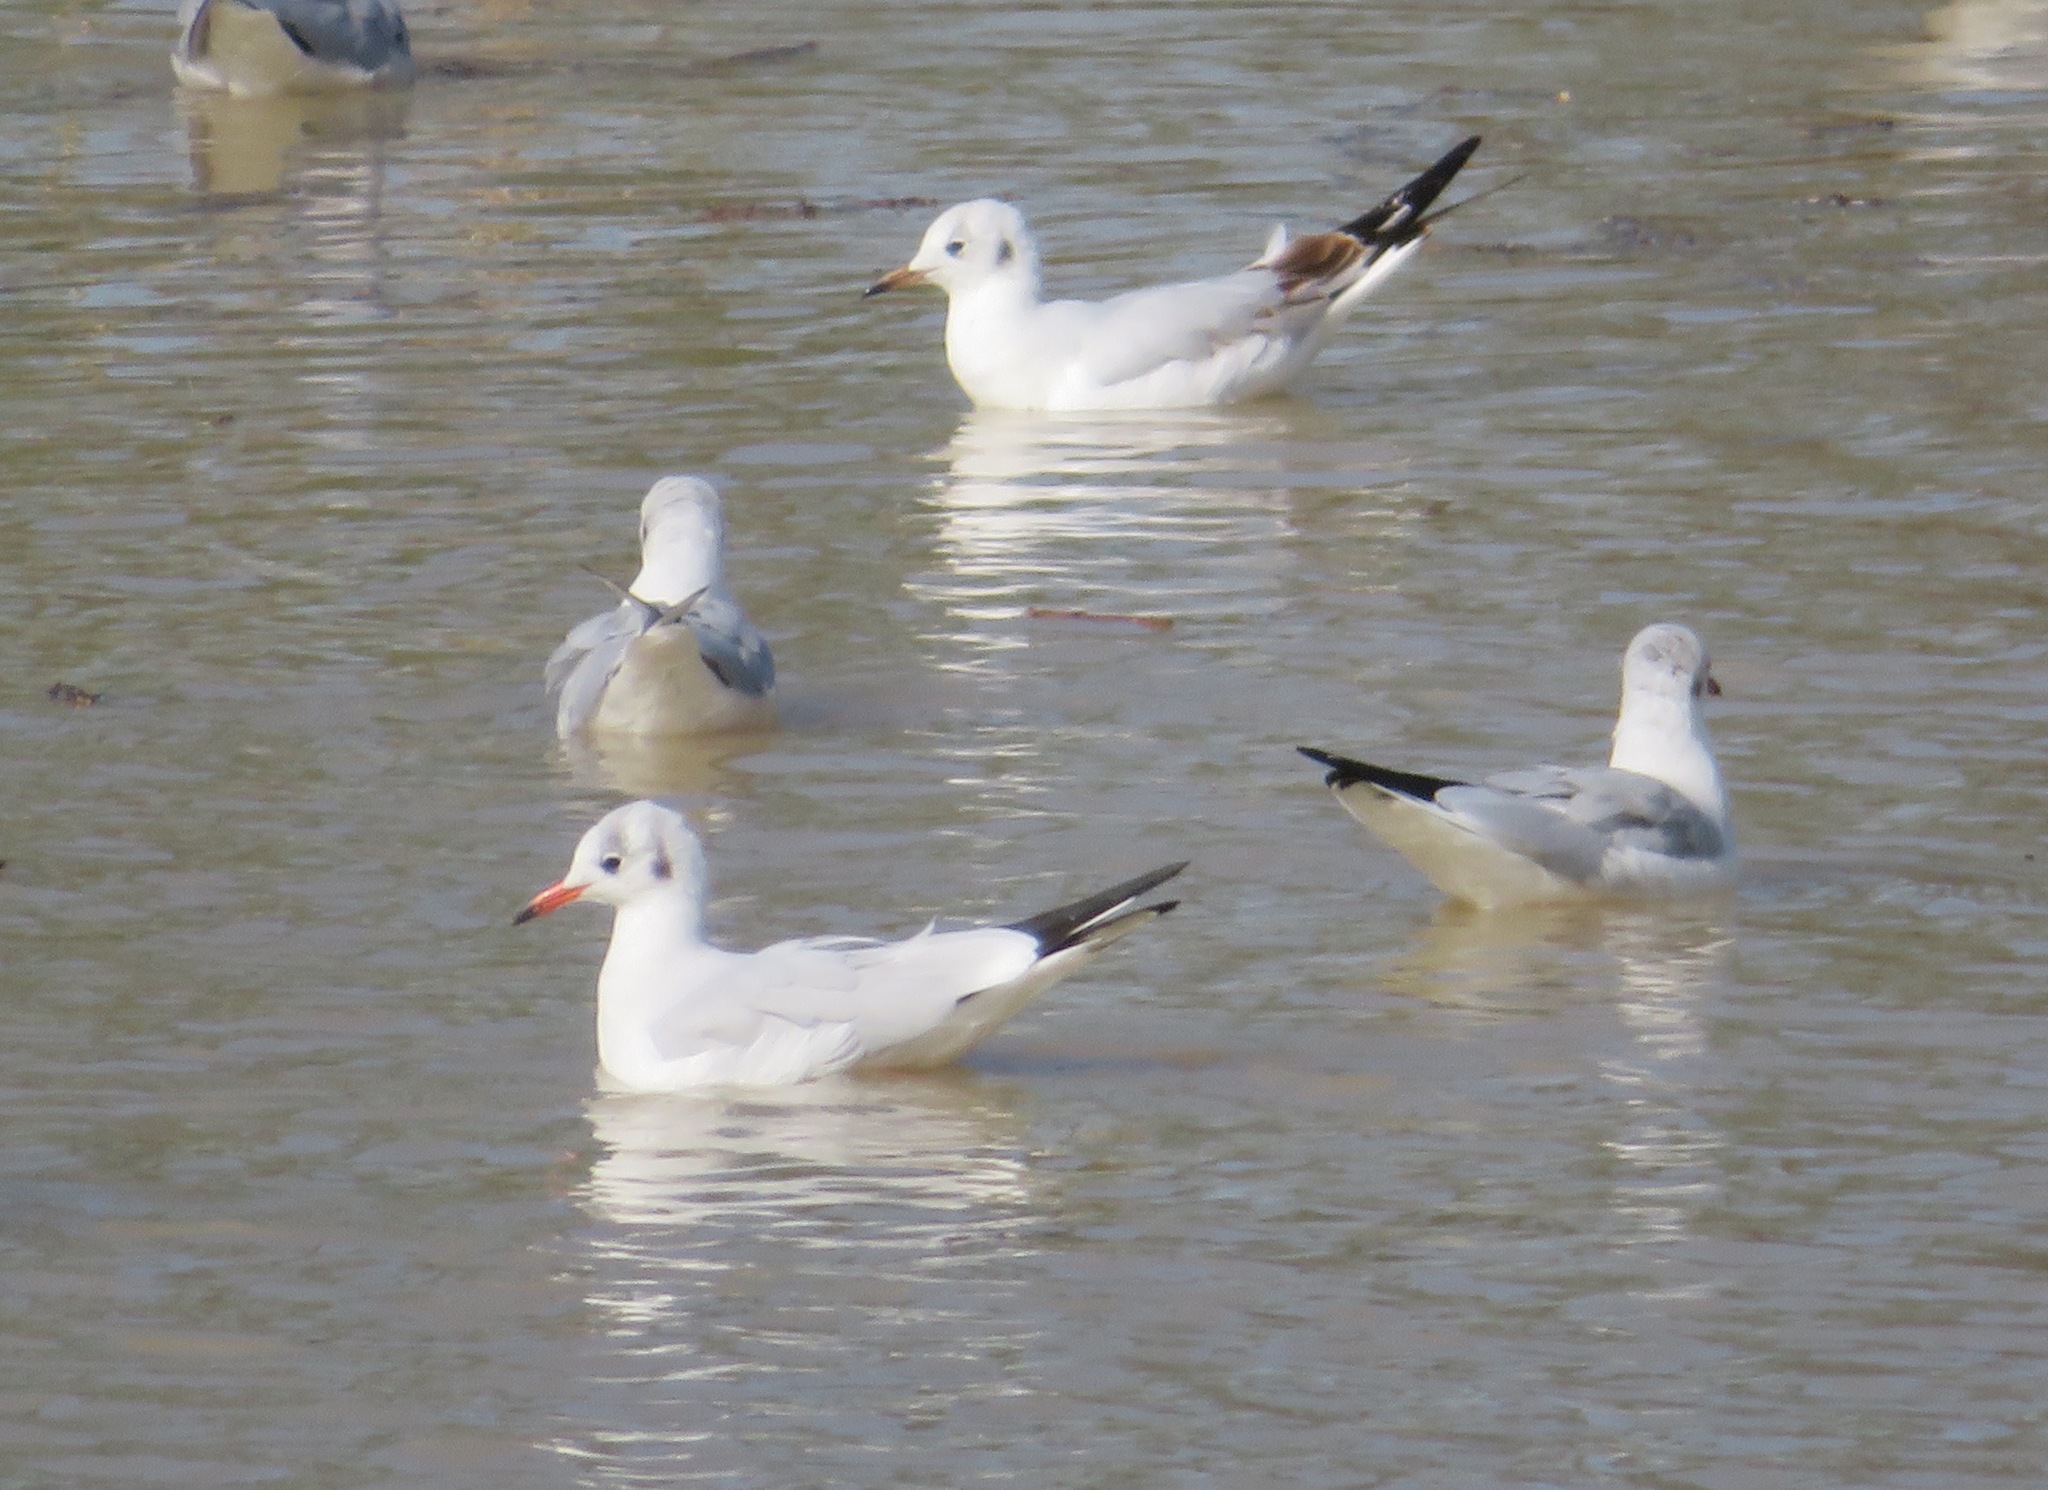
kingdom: Animalia
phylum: Chordata
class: Aves
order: Charadriiformes
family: Laridae
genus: Chroicocephalus
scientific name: Chroicocephalus ridibundus
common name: Black-headed gull
